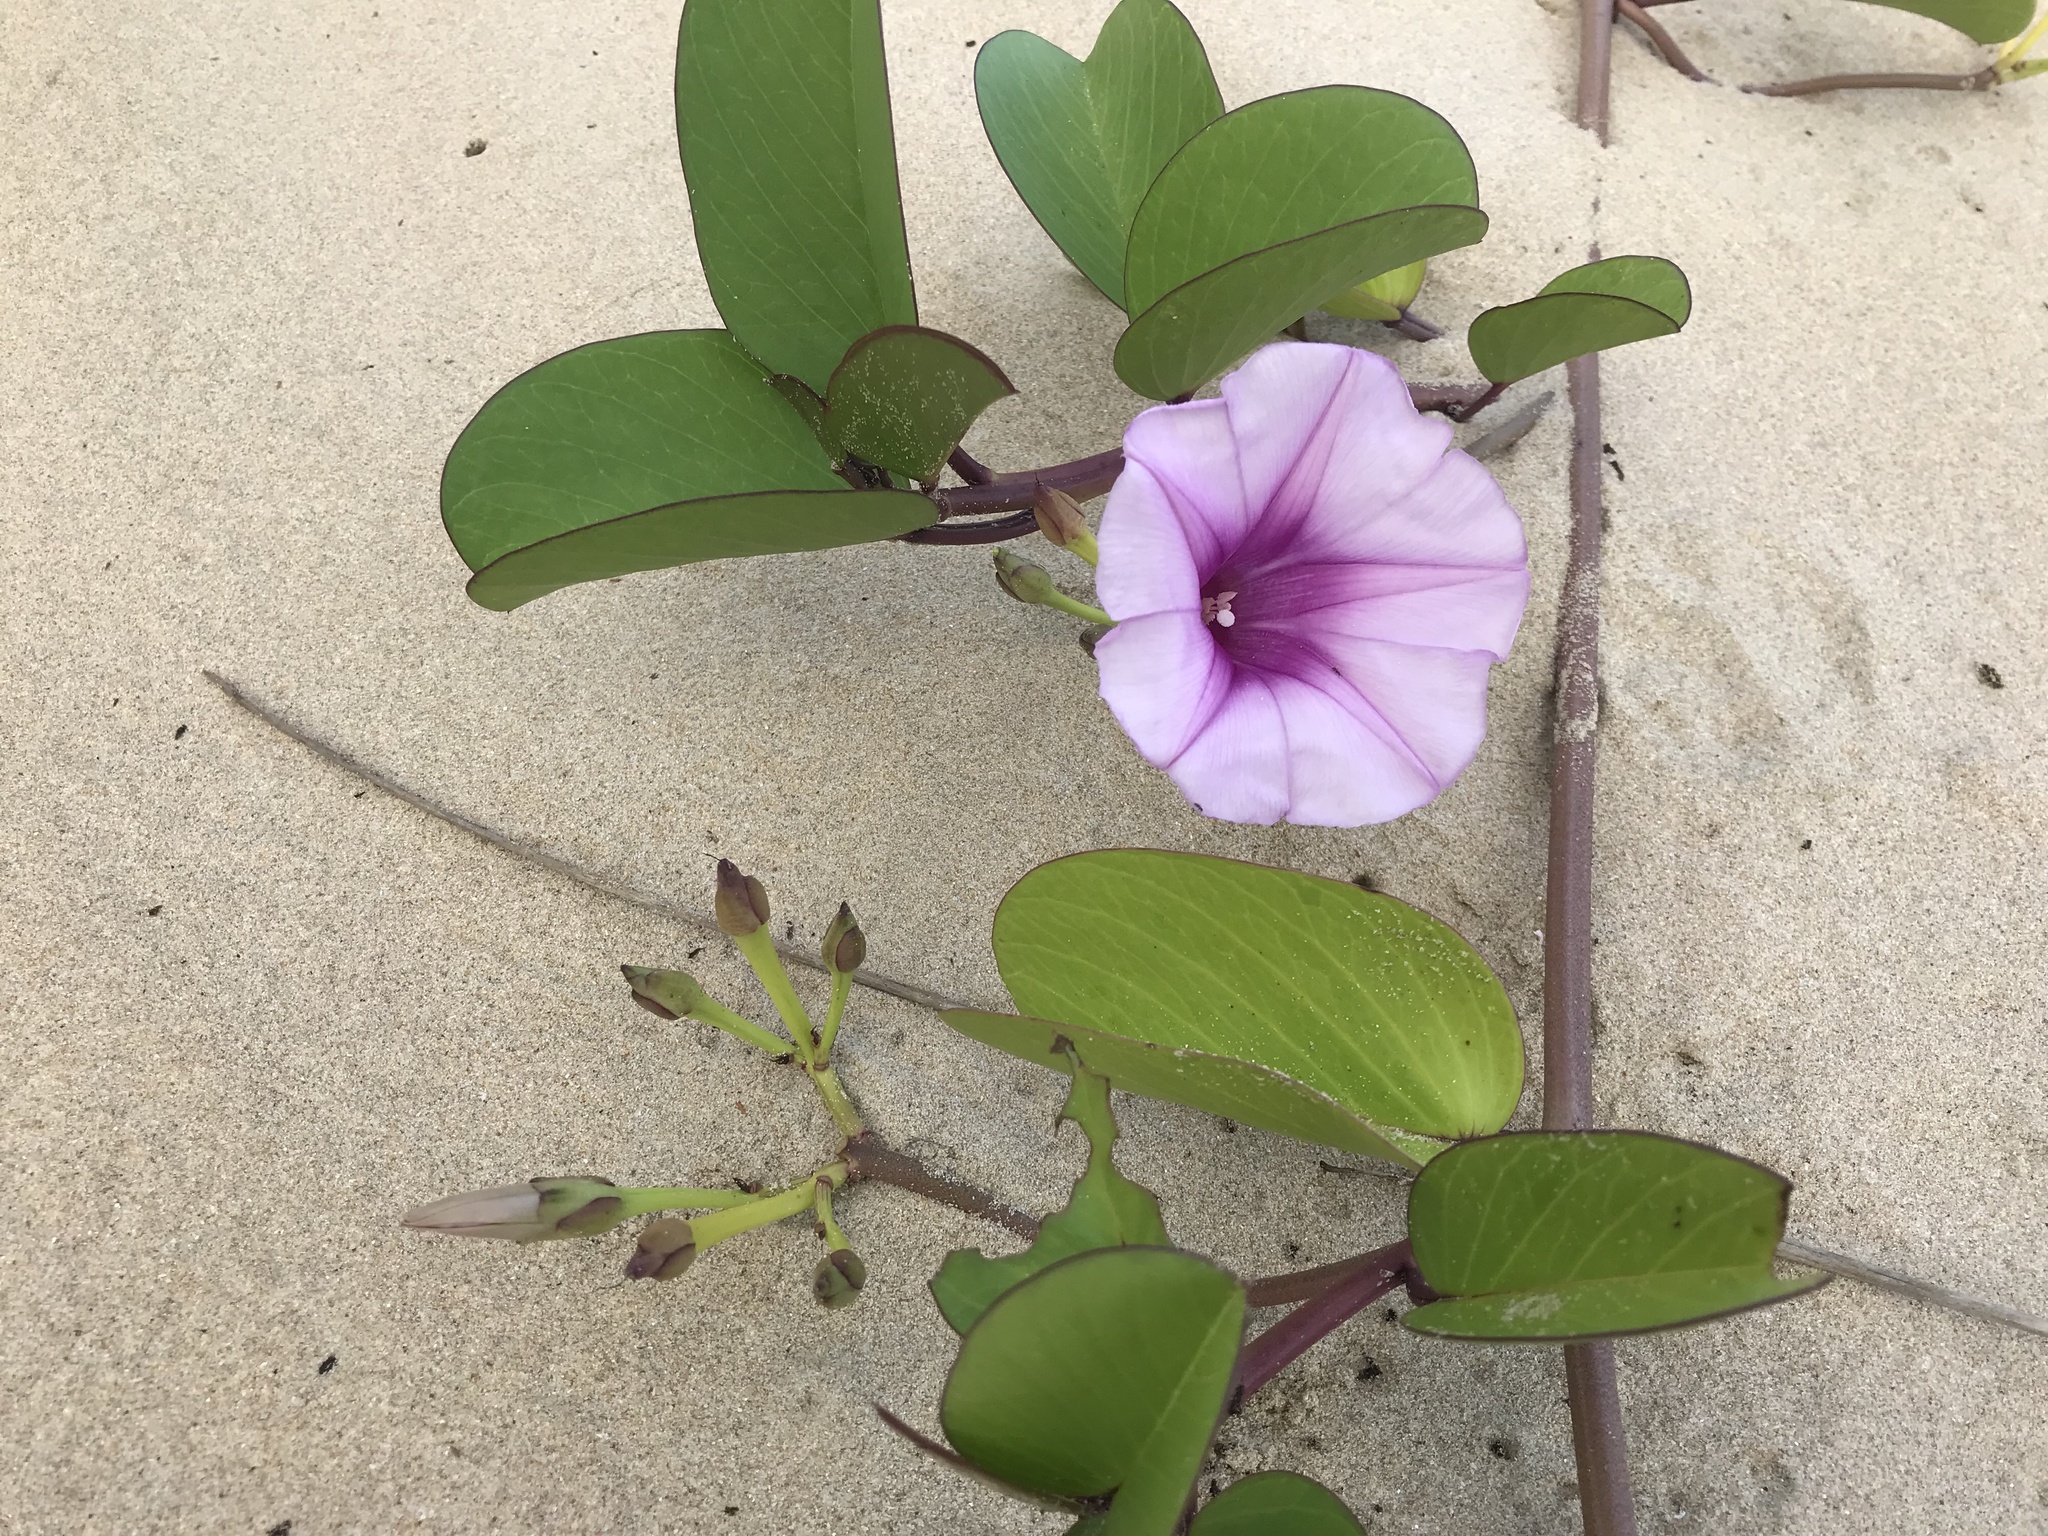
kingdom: Plantae
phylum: Tracheophyta
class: Magnoliopsida
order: Solanales
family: Convolvulaceae
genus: Ipomoea
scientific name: Ipomoea pes-caprae
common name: Beach morning glory
